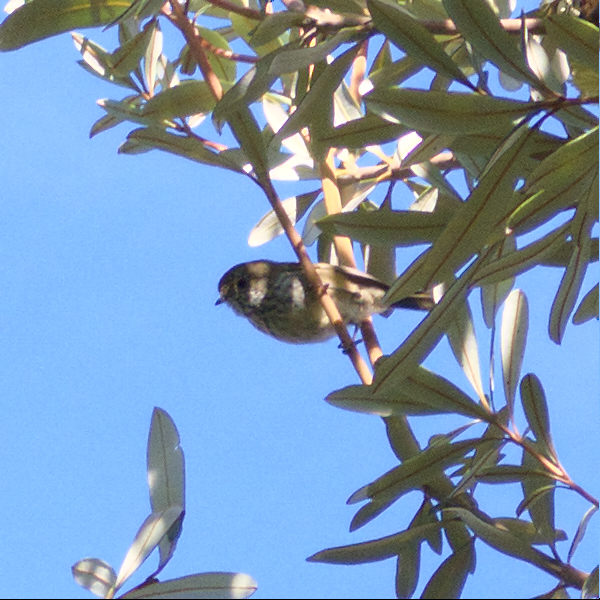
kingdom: Animalia
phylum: Chordata
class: Aves
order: Passeriformes
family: Acanthizidae
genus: Acanthiza
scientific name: Acanthiza pusilla
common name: Brown thornbill
